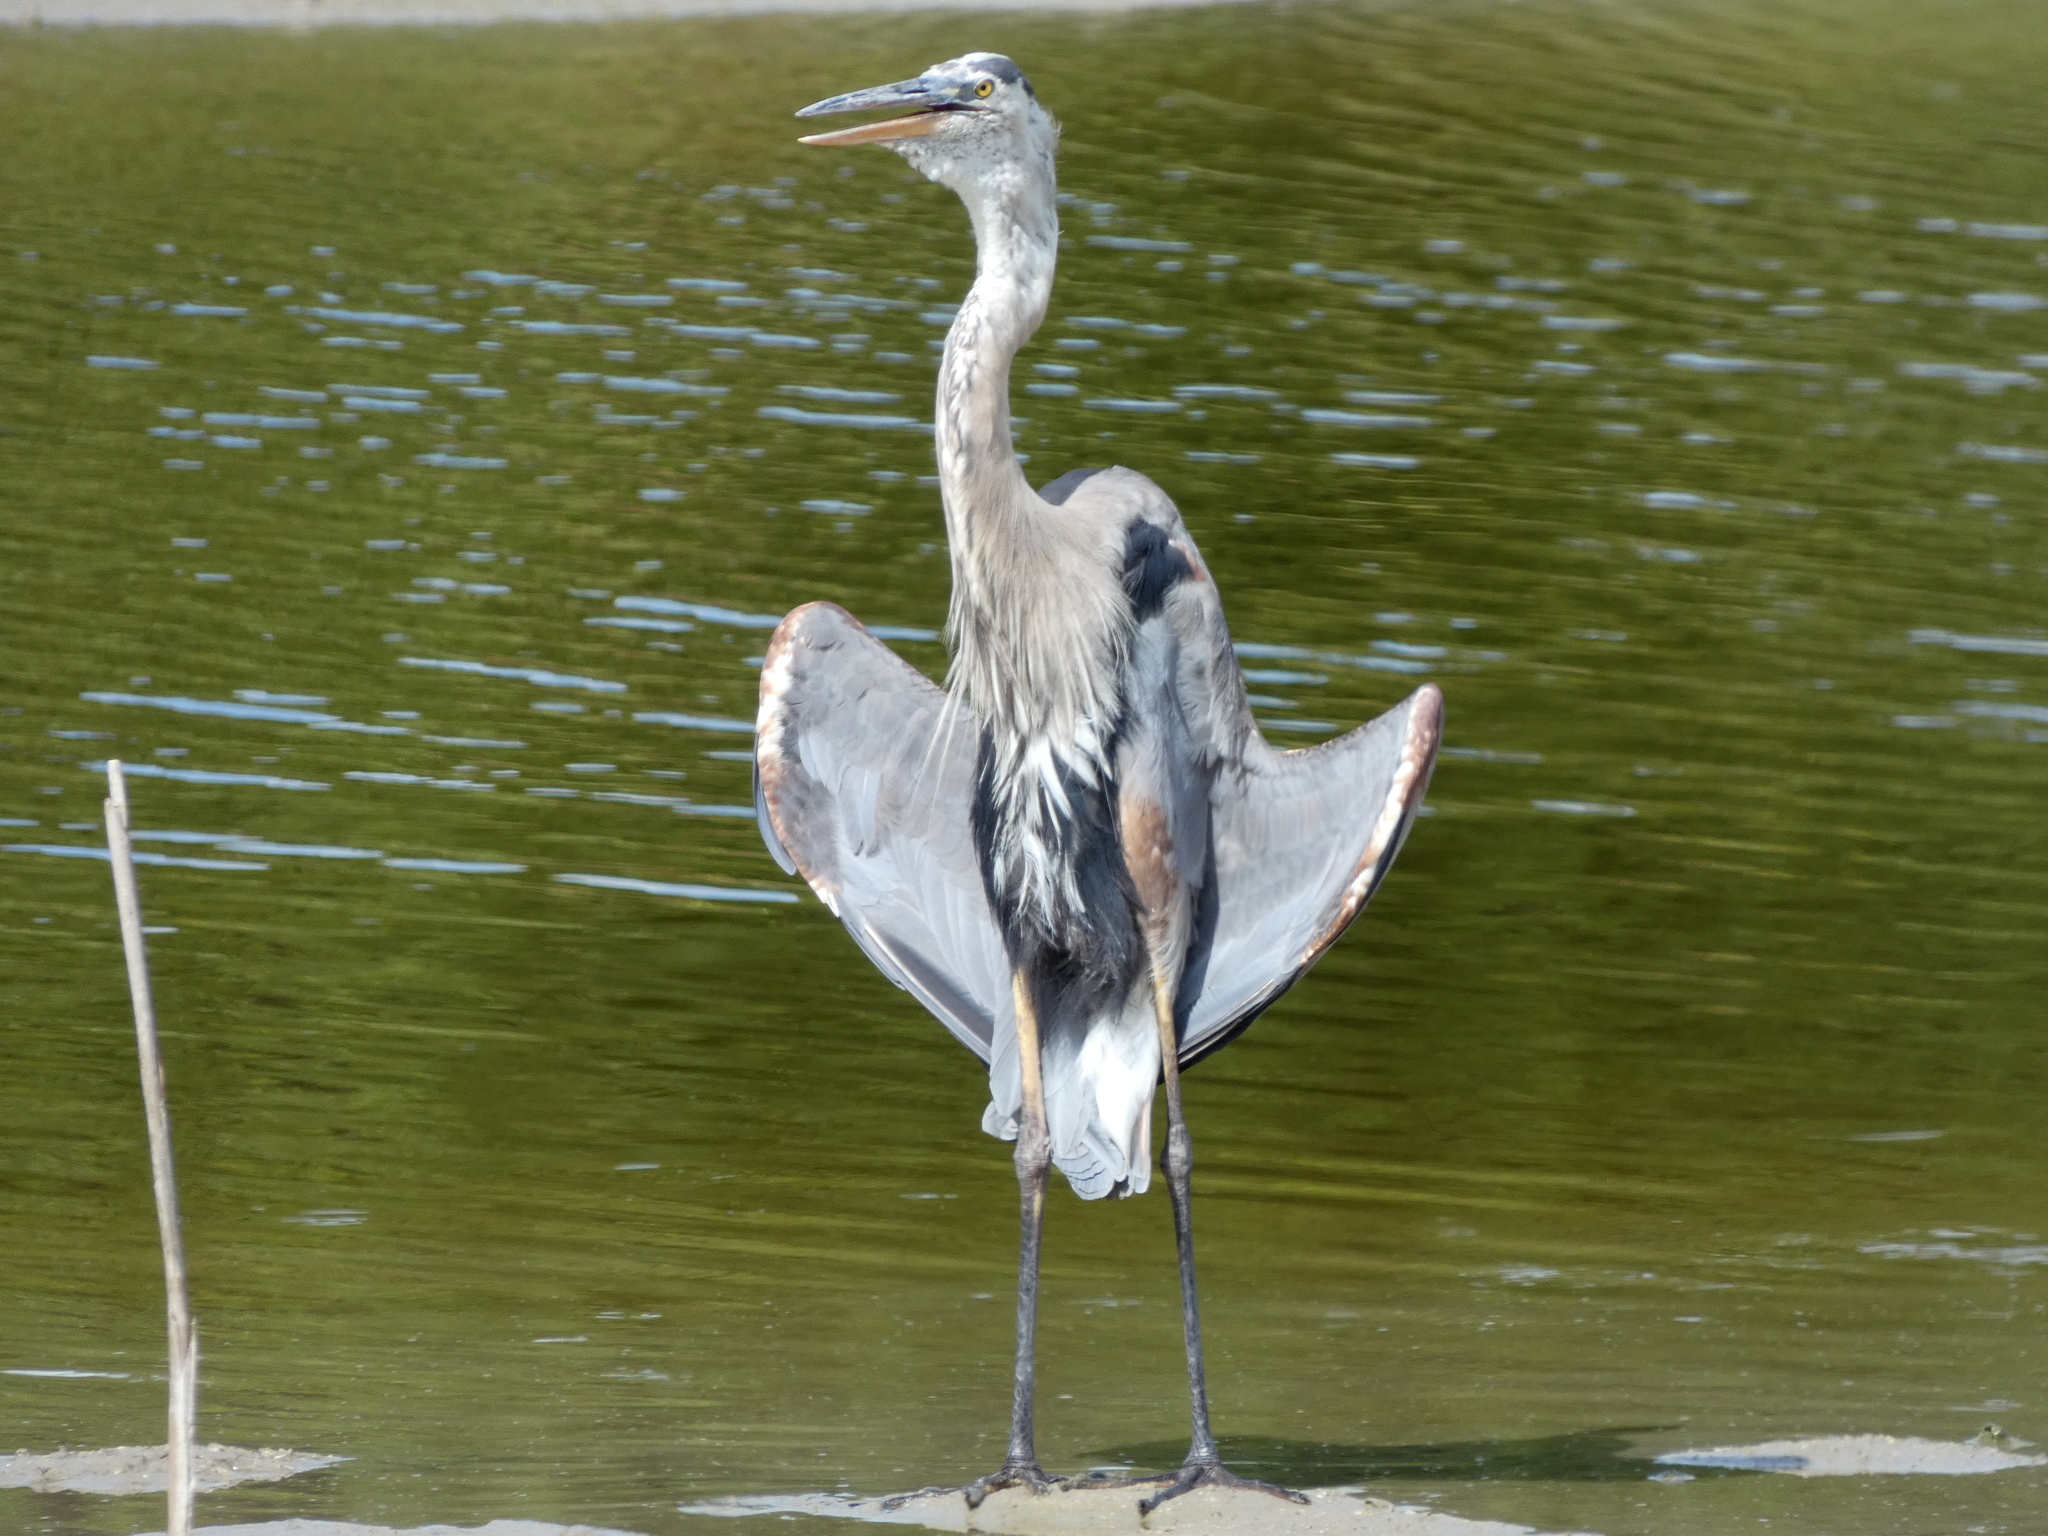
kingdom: Animalia
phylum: Chordata
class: Aves
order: Pelecaniformes
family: Ardeidae
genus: Ardea
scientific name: Ardea herodias
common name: Great blue heron
